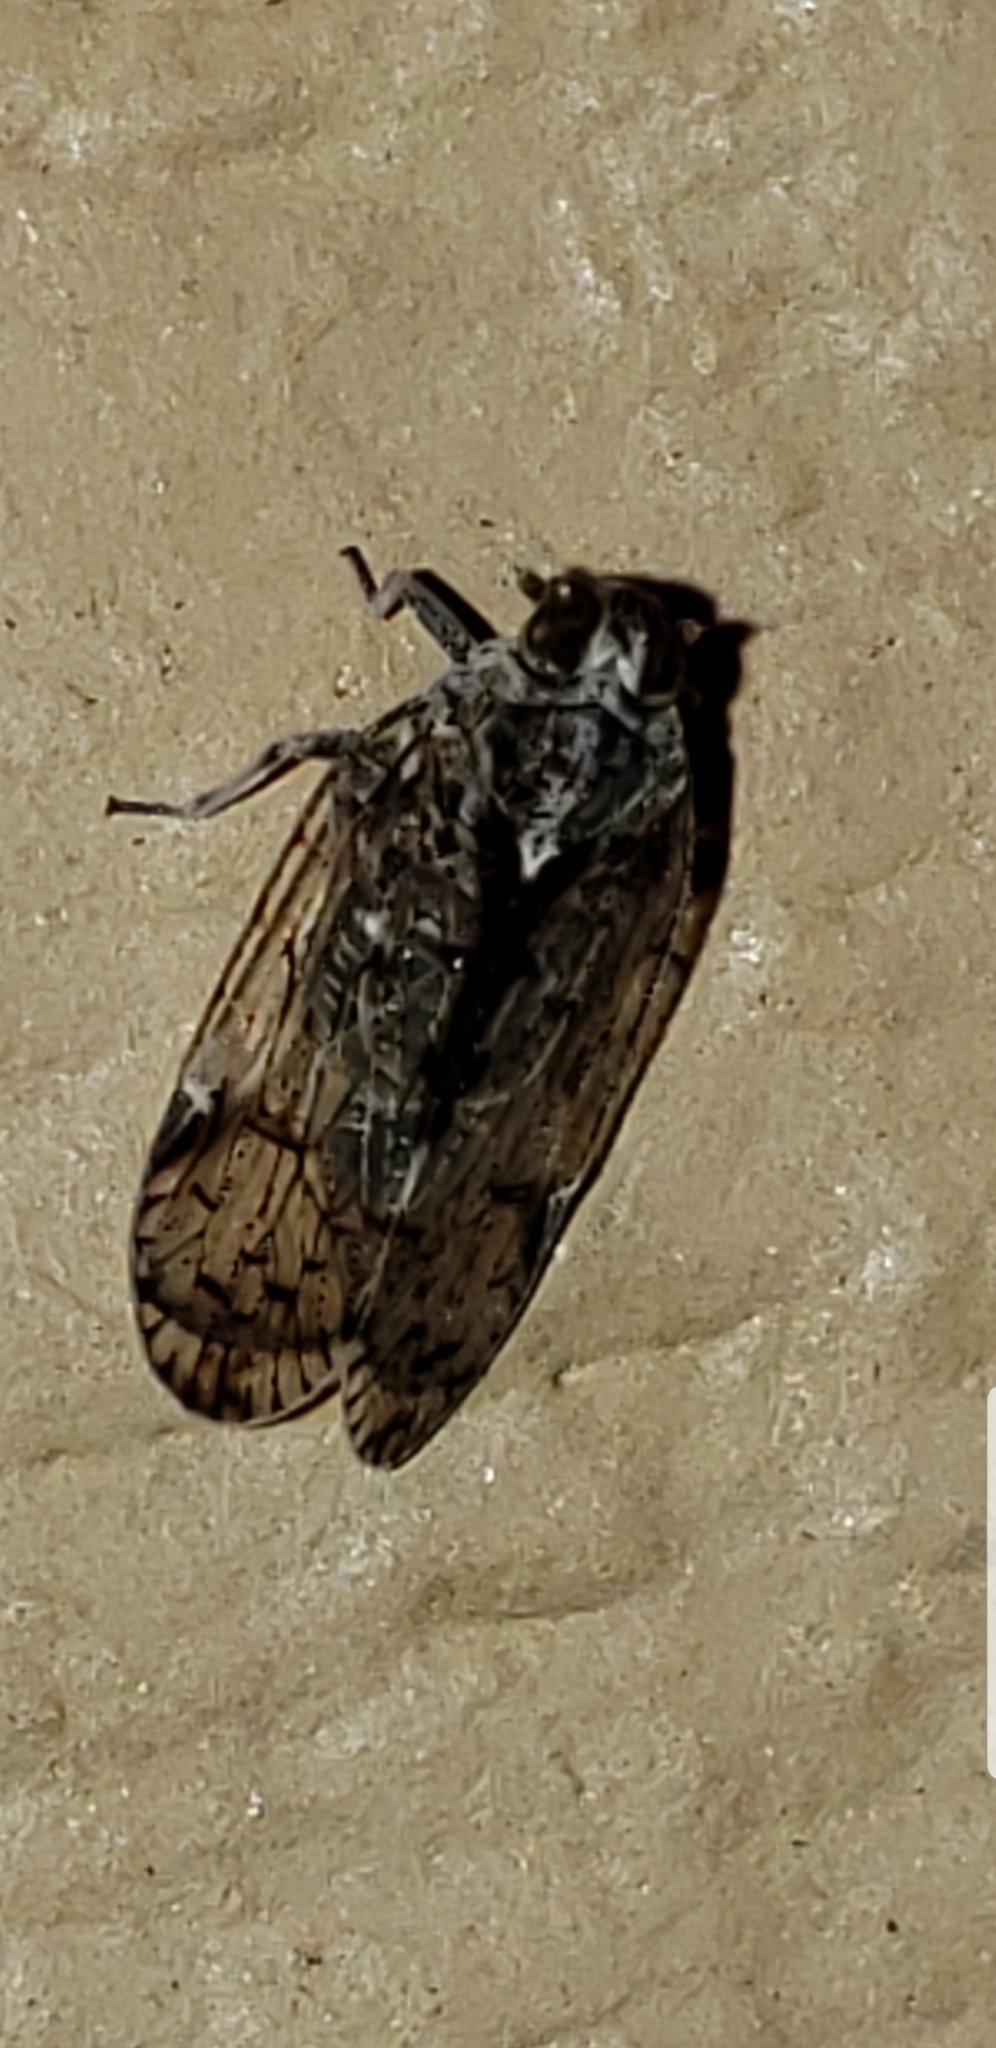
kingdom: Animalia
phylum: Arthropoda
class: Insecta
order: Hemiptera
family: Cixiidae
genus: Melanoliarus
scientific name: Melanoliarus placitus
